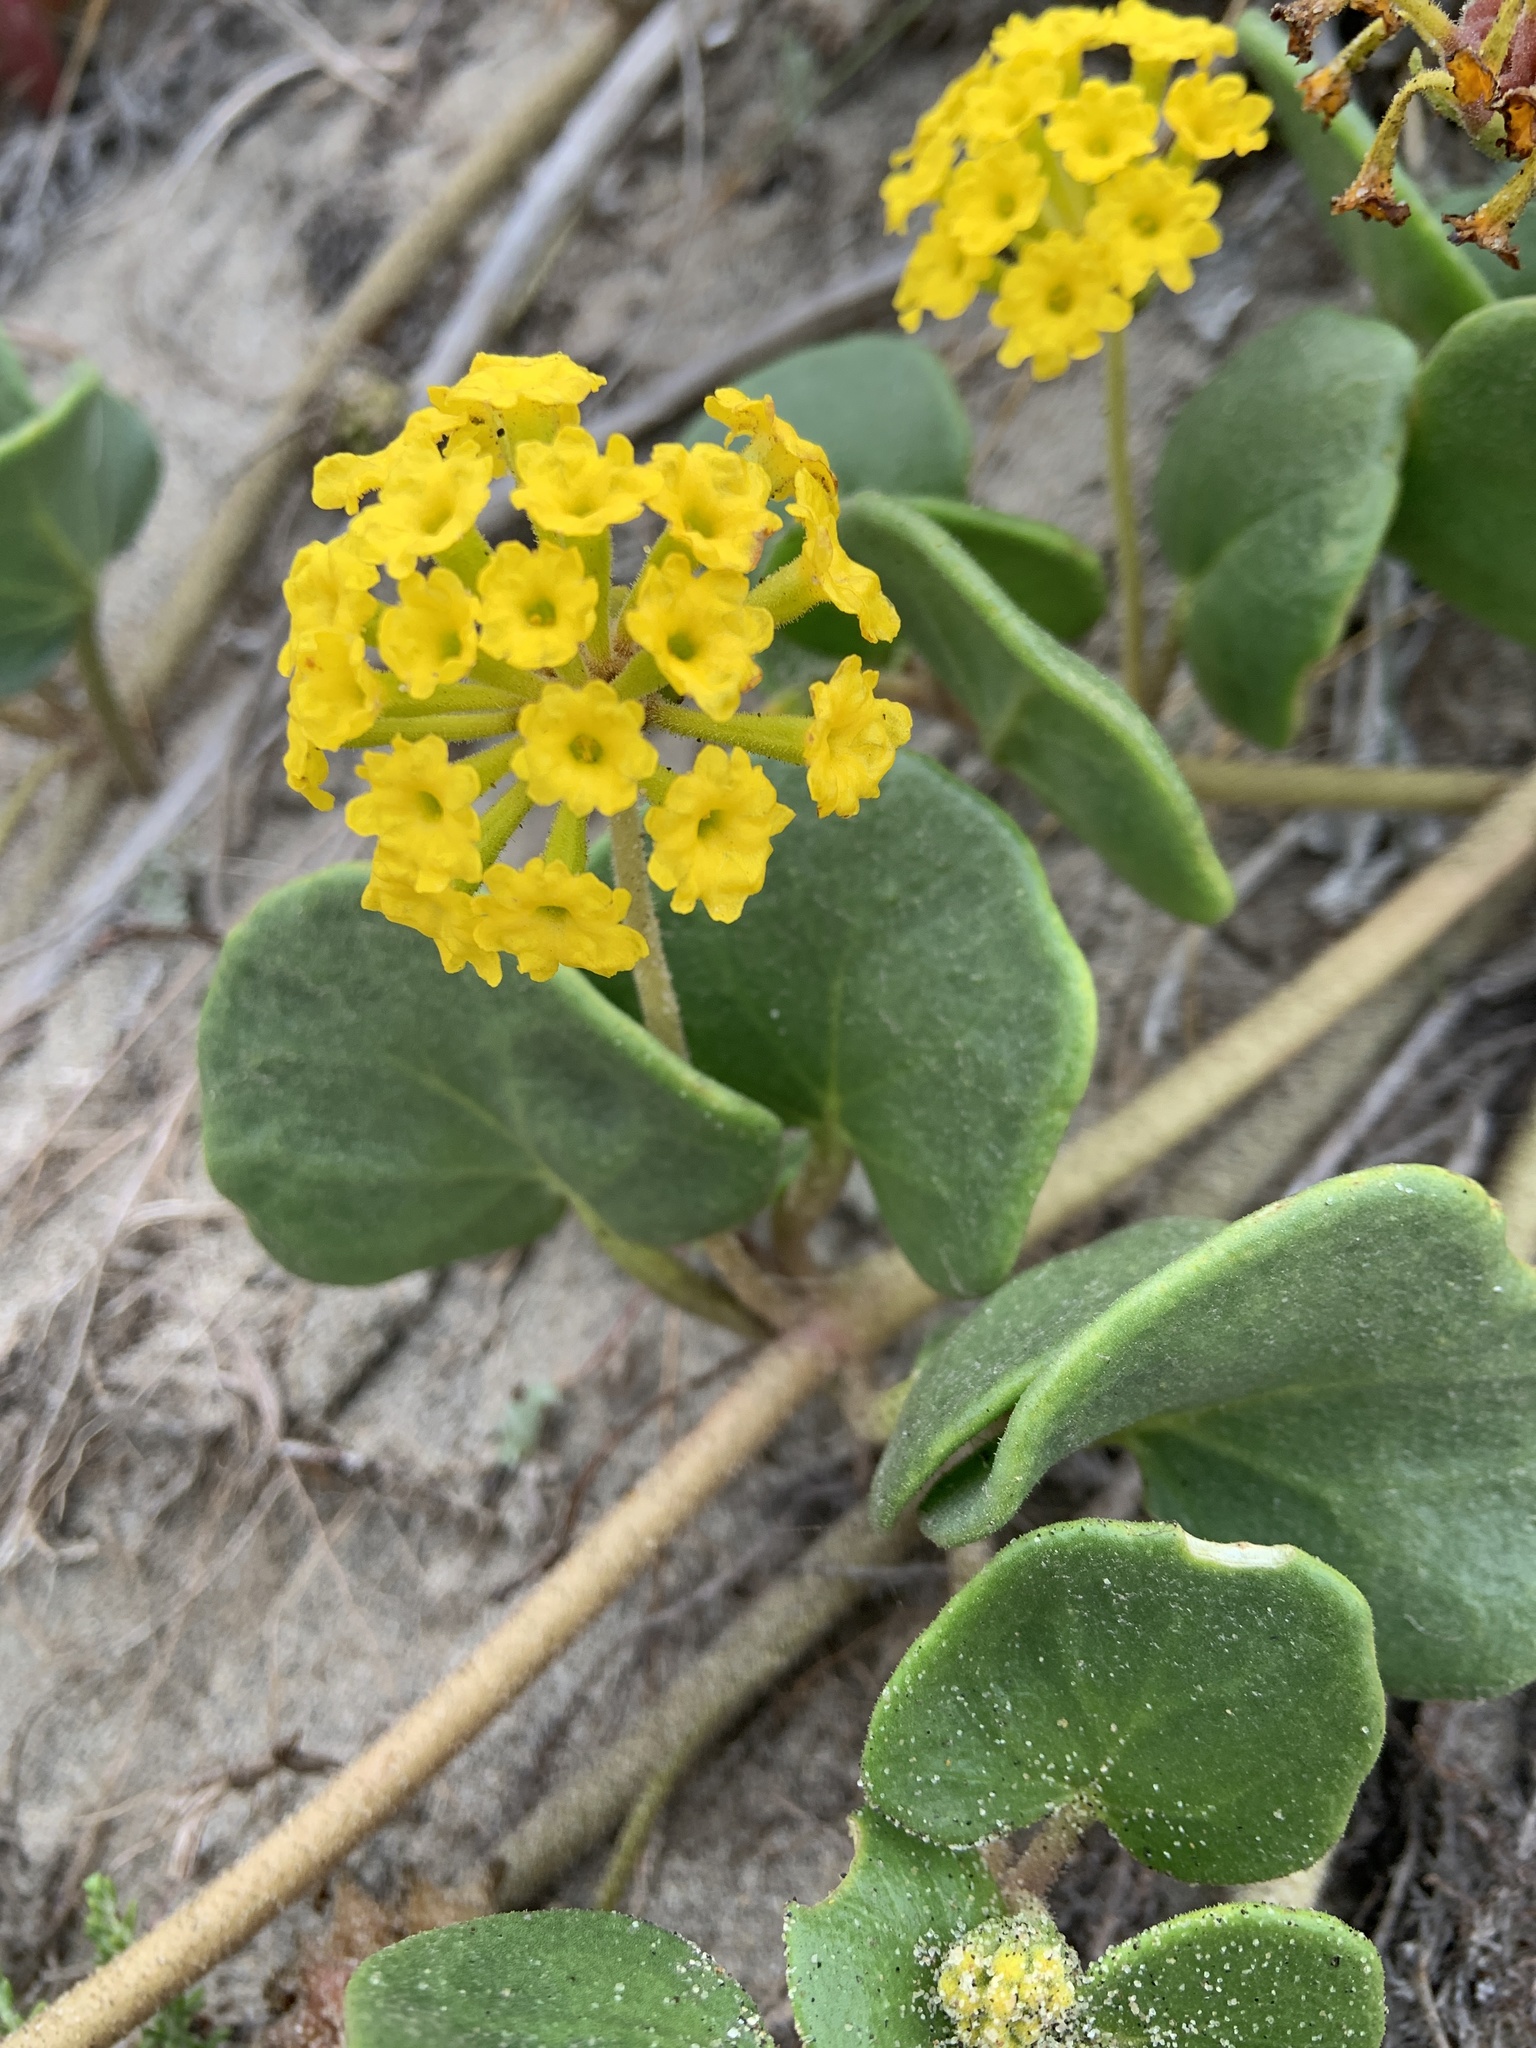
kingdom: Plantae
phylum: Tracheophyta
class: Magnoliopsida
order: Caryophyllales
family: Nyctaginaceae
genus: Abronia
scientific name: Abronia latifolia
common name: Yellow sand-verbena
